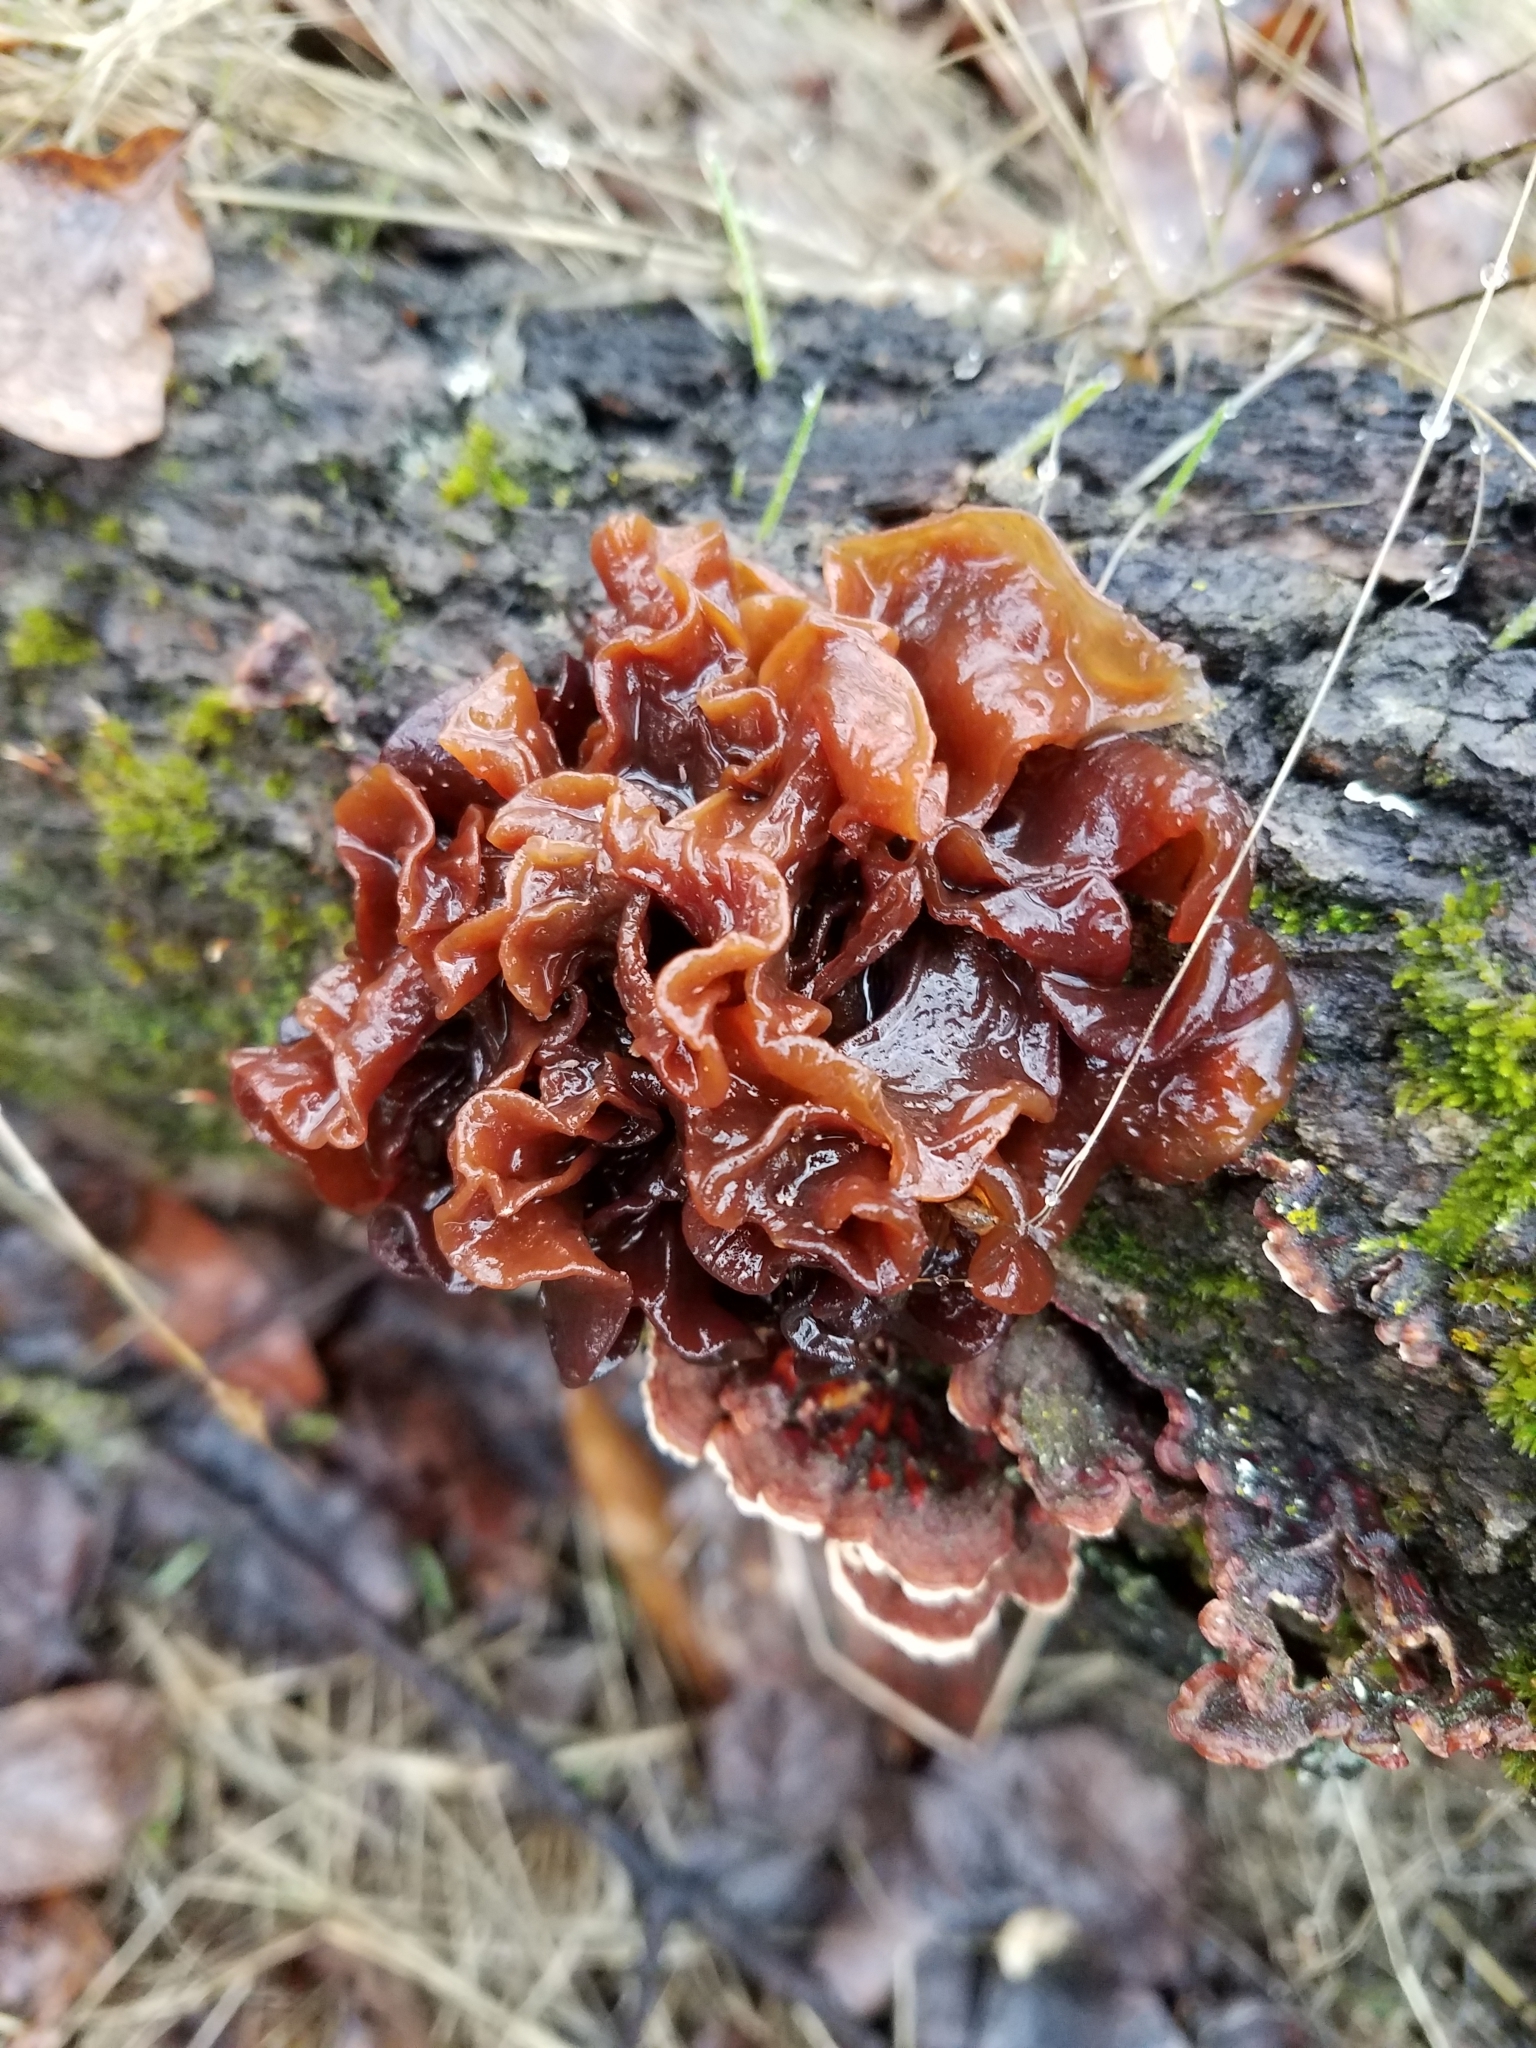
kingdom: Fungi
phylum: Basidiomycota
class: Tremellomycetes
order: Tremellales
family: Tremellaceae
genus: Phaeotremella
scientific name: Phaeotremella foliacea
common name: Leafy brain
